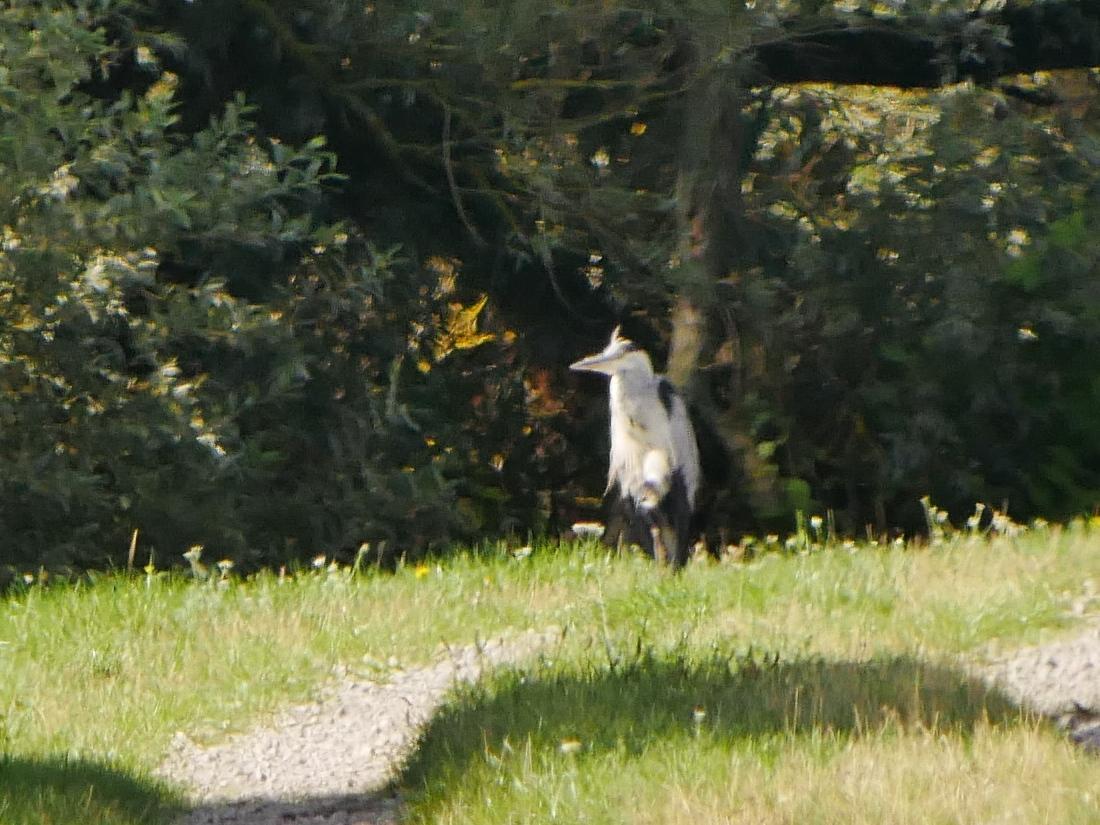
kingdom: Animalia
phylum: Chordata
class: Aves
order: Pelecaniformes
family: Ardeidae
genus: Ardea
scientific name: Ardea cinerea
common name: Grey heron
